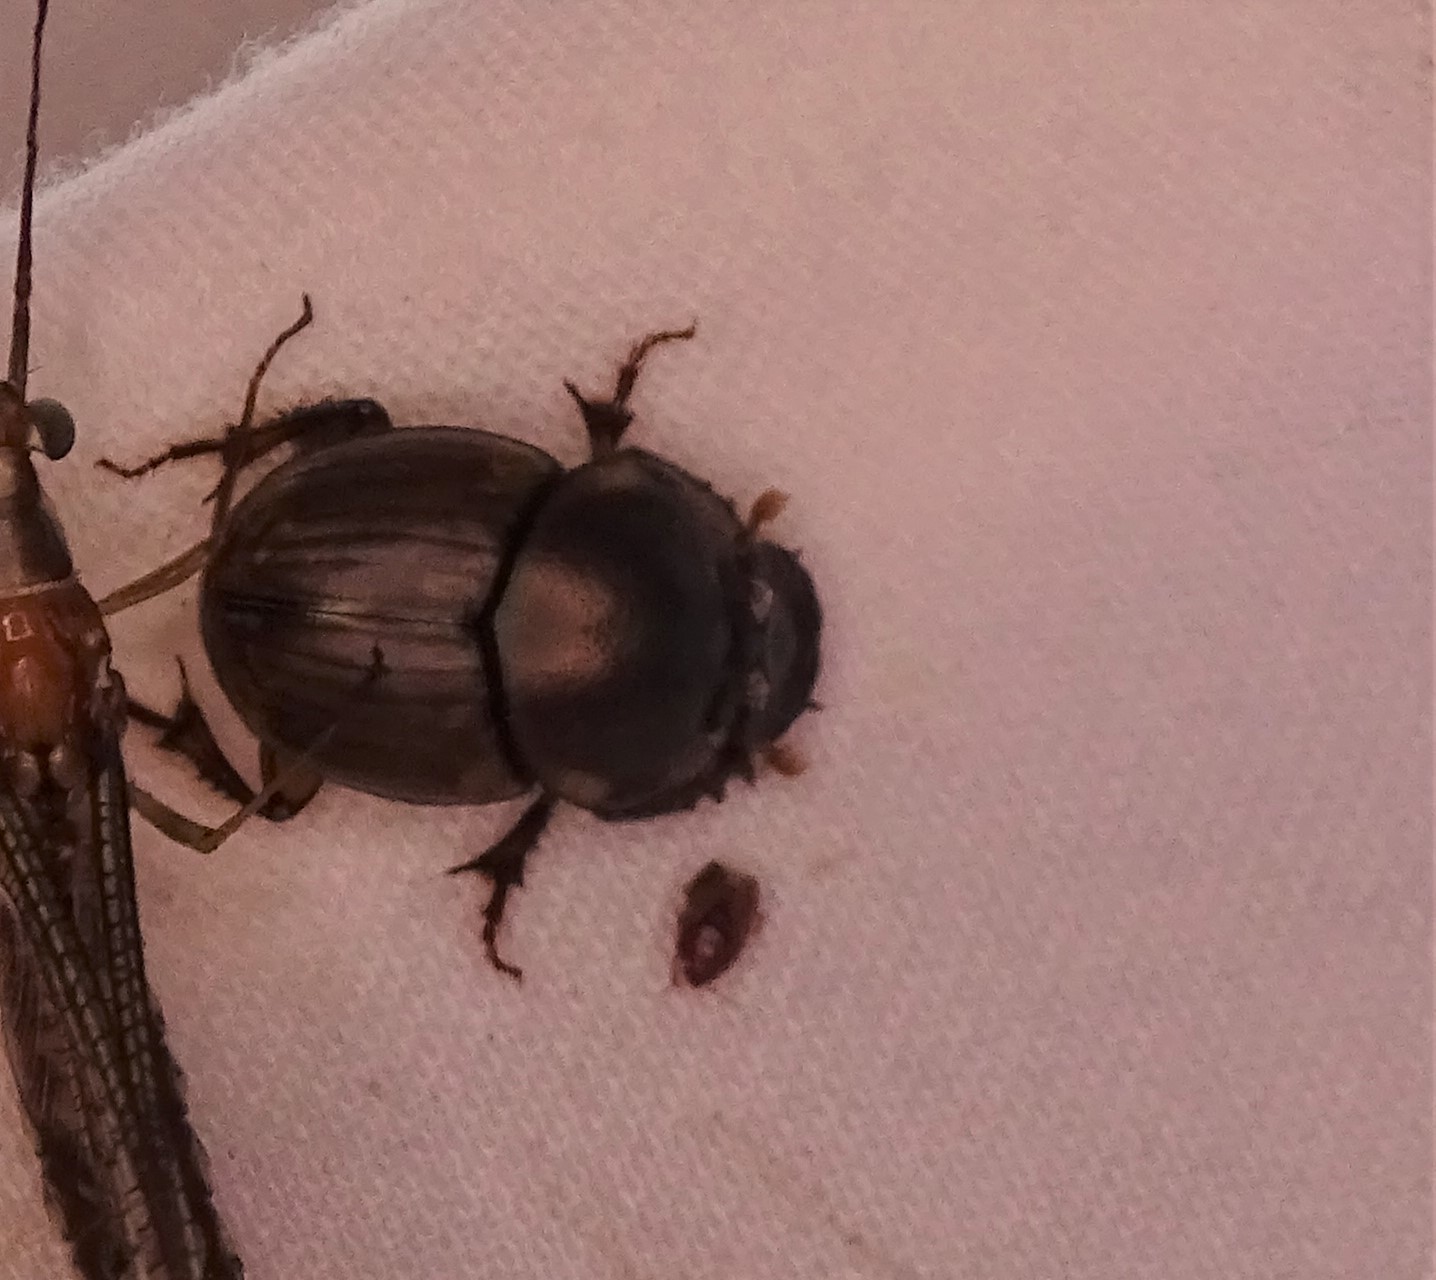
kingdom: Animalia
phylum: Arthropoda
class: Insecta
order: Coleoptera
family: Scarabaeidae
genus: Digitonthophagus
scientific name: Digitonthophagus gazella
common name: Brown dung beetle
